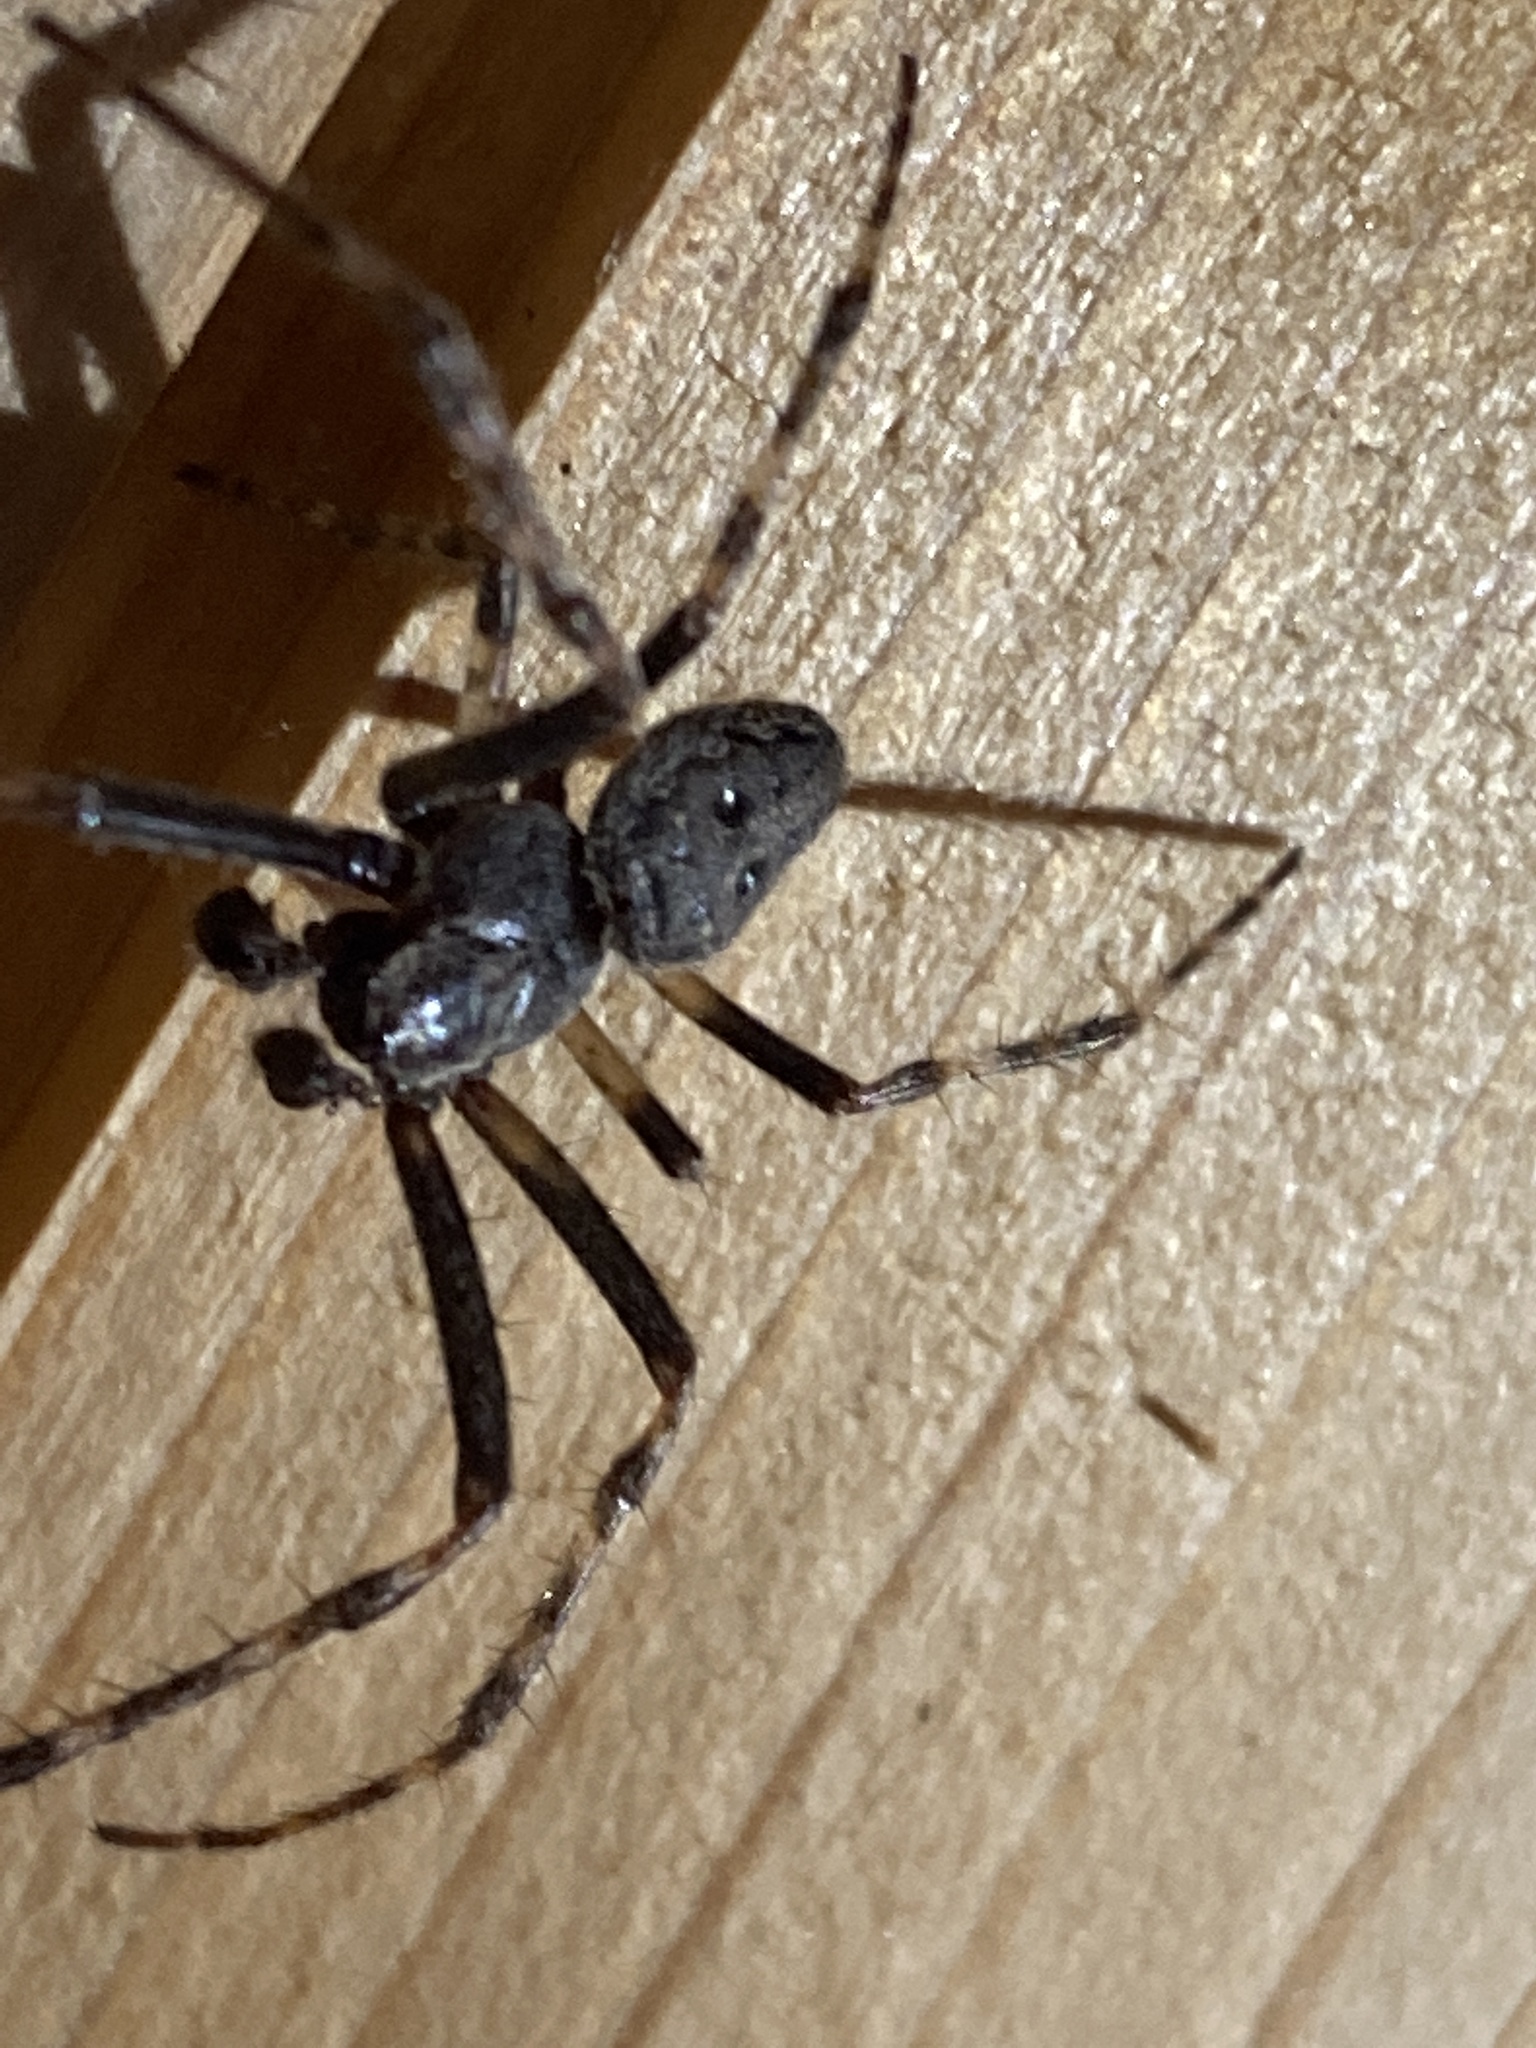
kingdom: Animalia
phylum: Arthropoda
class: Arachnida
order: Araneae
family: Araneidae
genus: Nuctenea
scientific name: Nuctenea umbratica
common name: Toad spider
